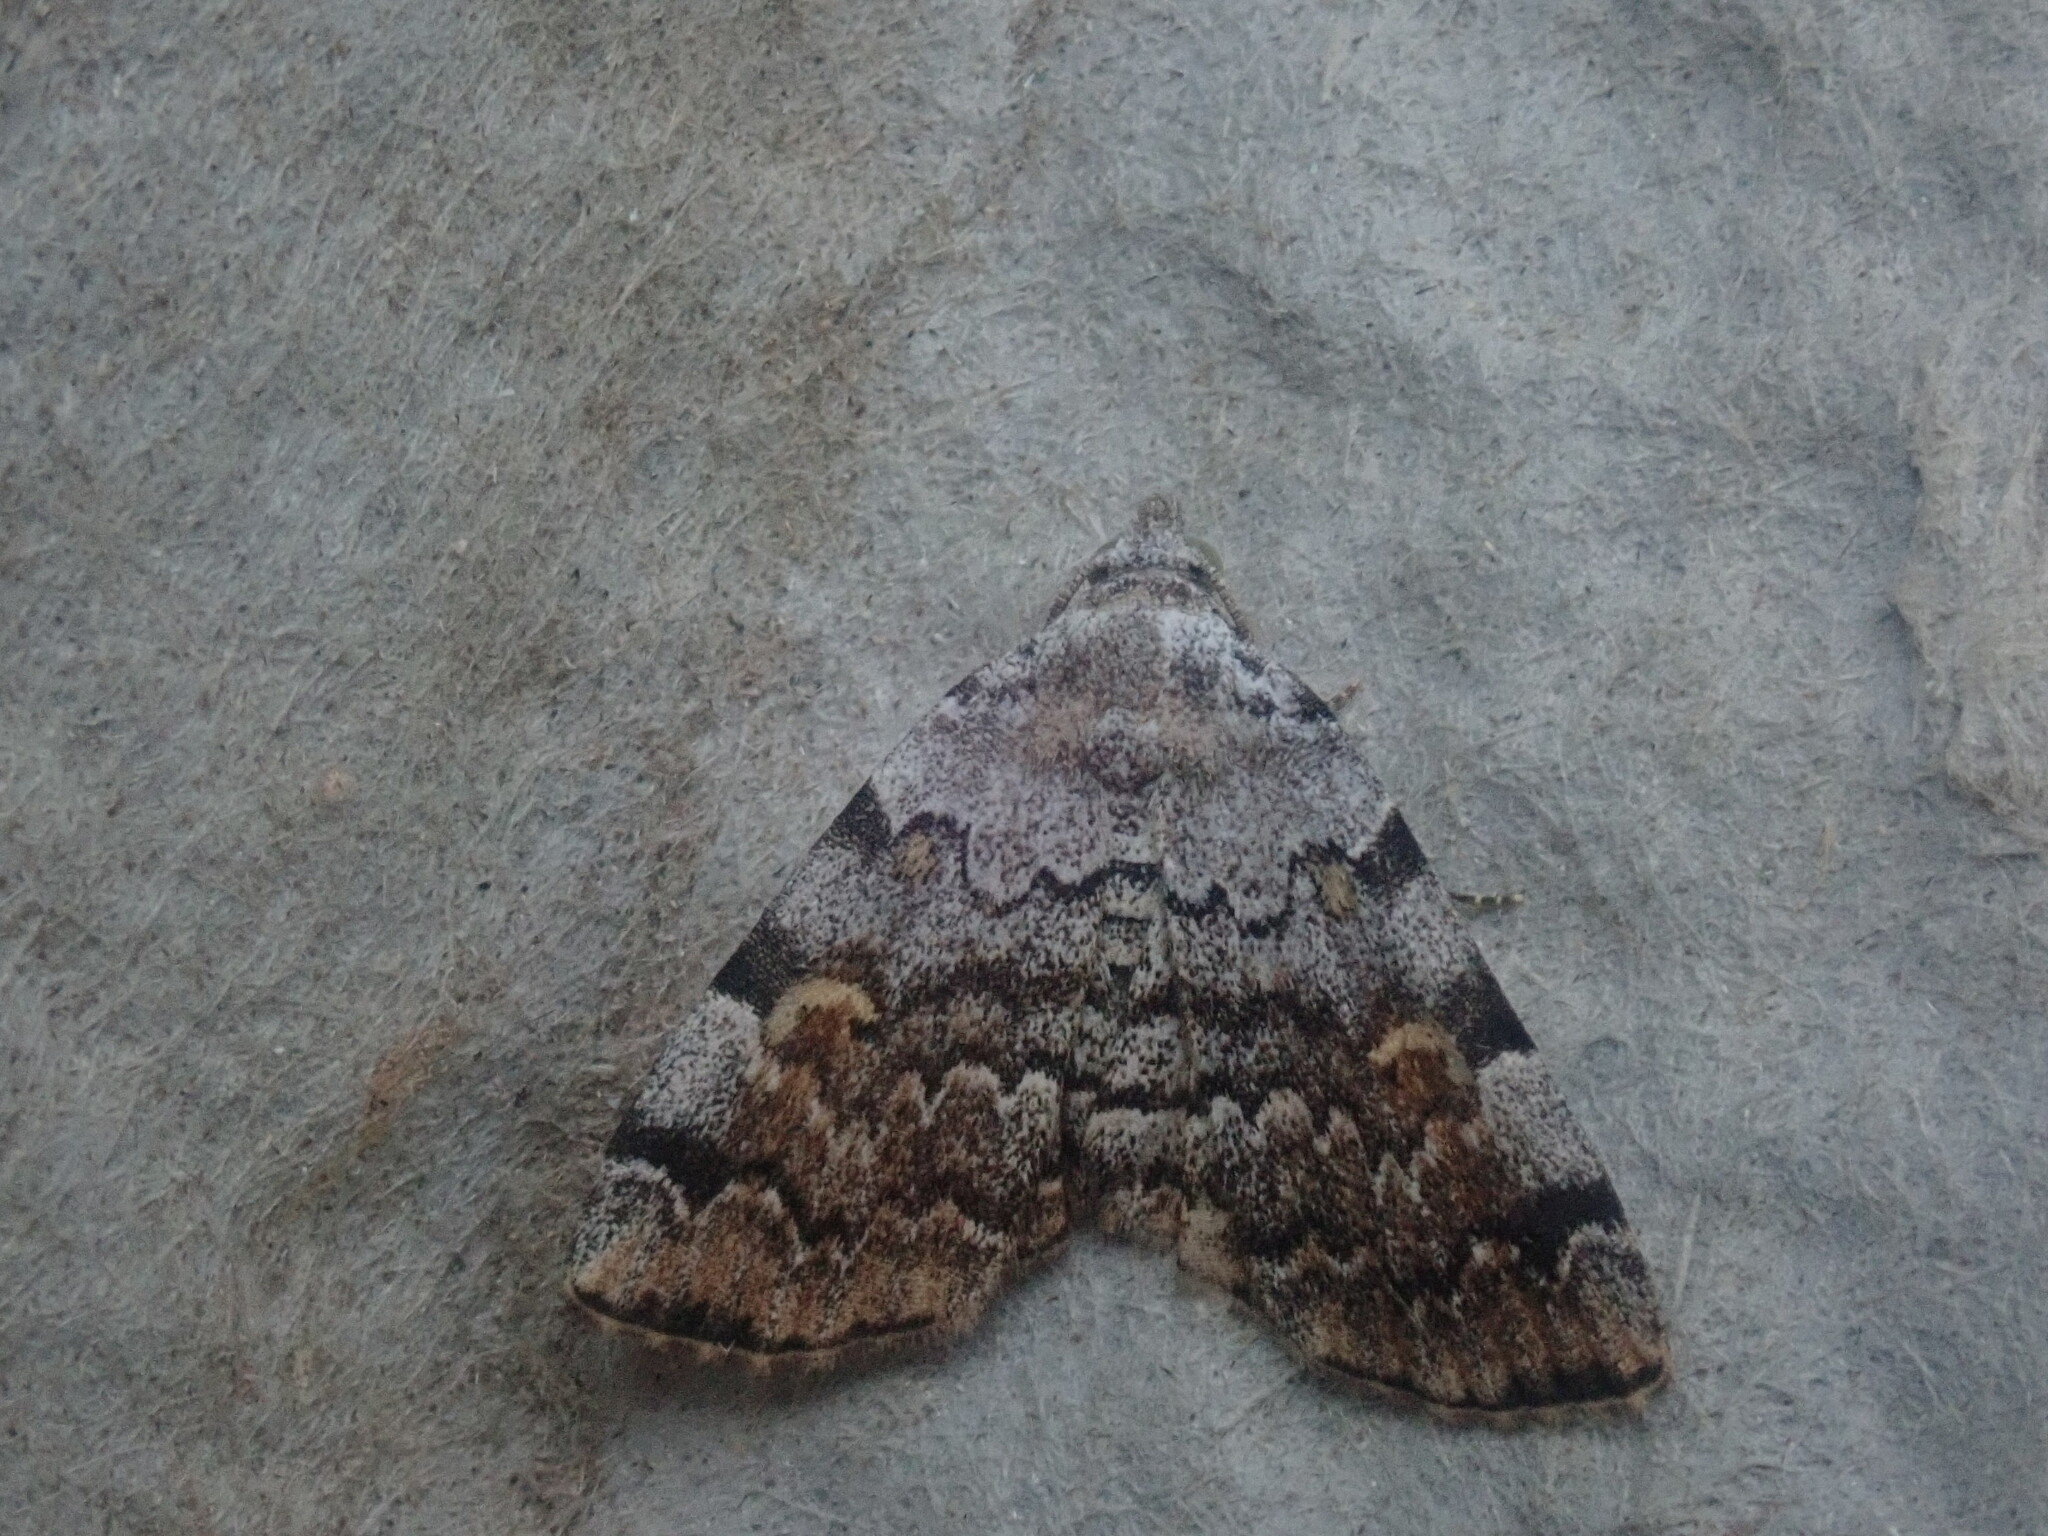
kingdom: Animalia
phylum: Arthropoda
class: Insecta
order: Lepidoptera
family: Erebidae
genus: Idia
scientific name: Idia americalis
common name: American idia moth
